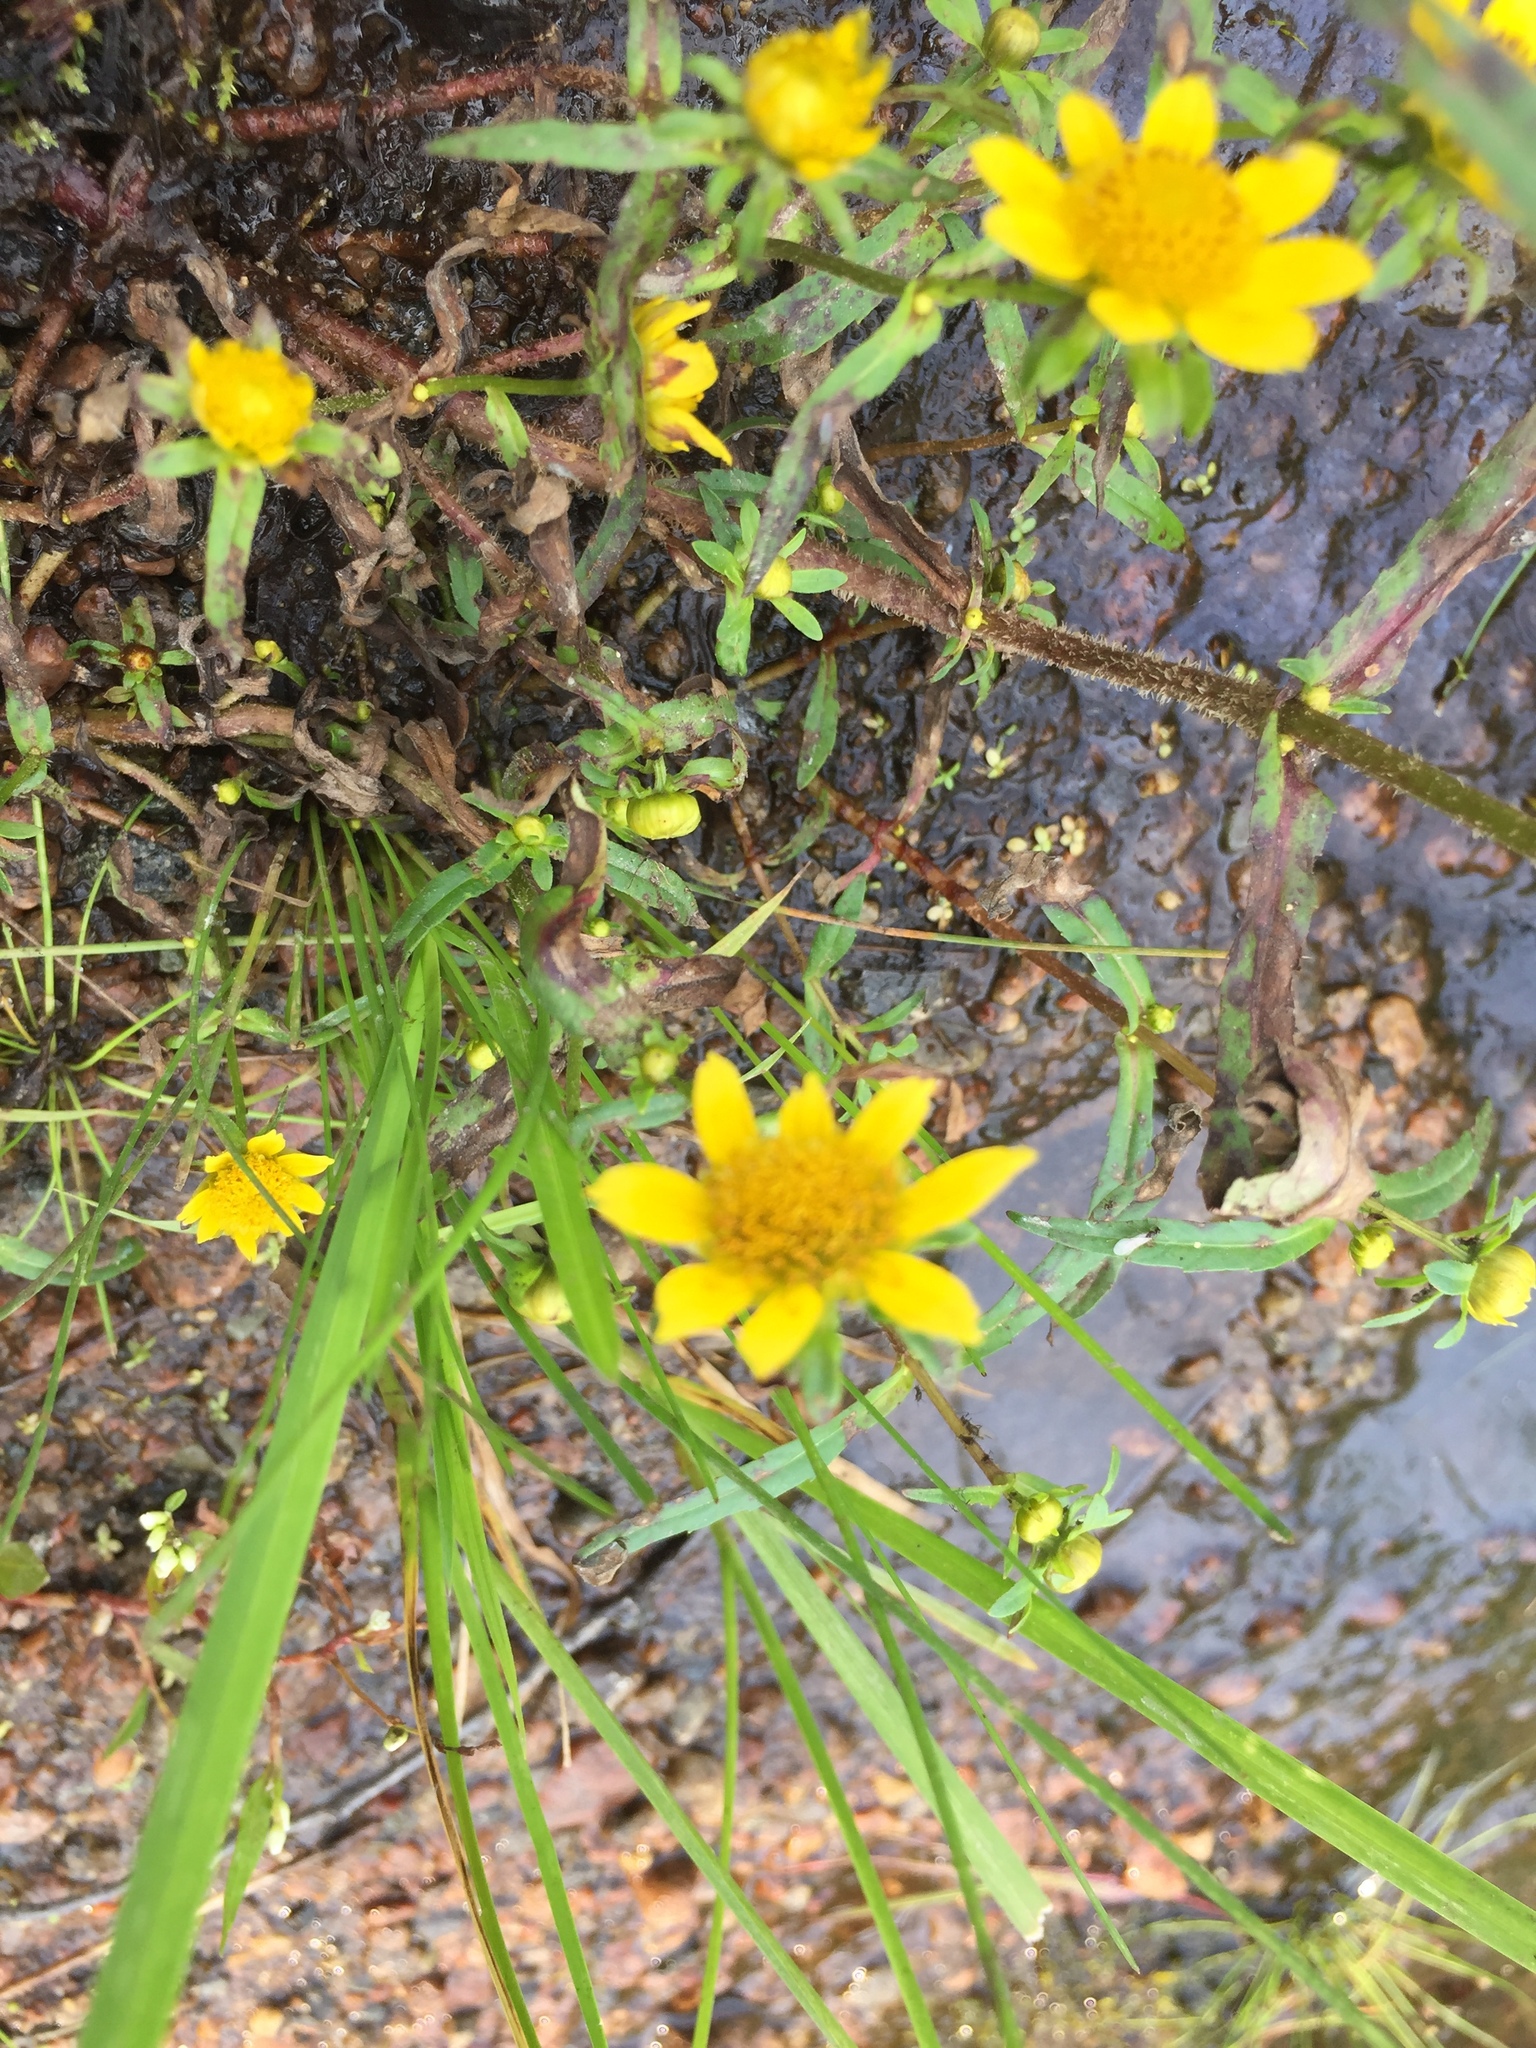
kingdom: Plantae
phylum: Tracheophyta
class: Magnoliopsida
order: Asterales
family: Asteraceae
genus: Bidens
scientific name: Bidens cernua
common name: Nodding bur-marigold
